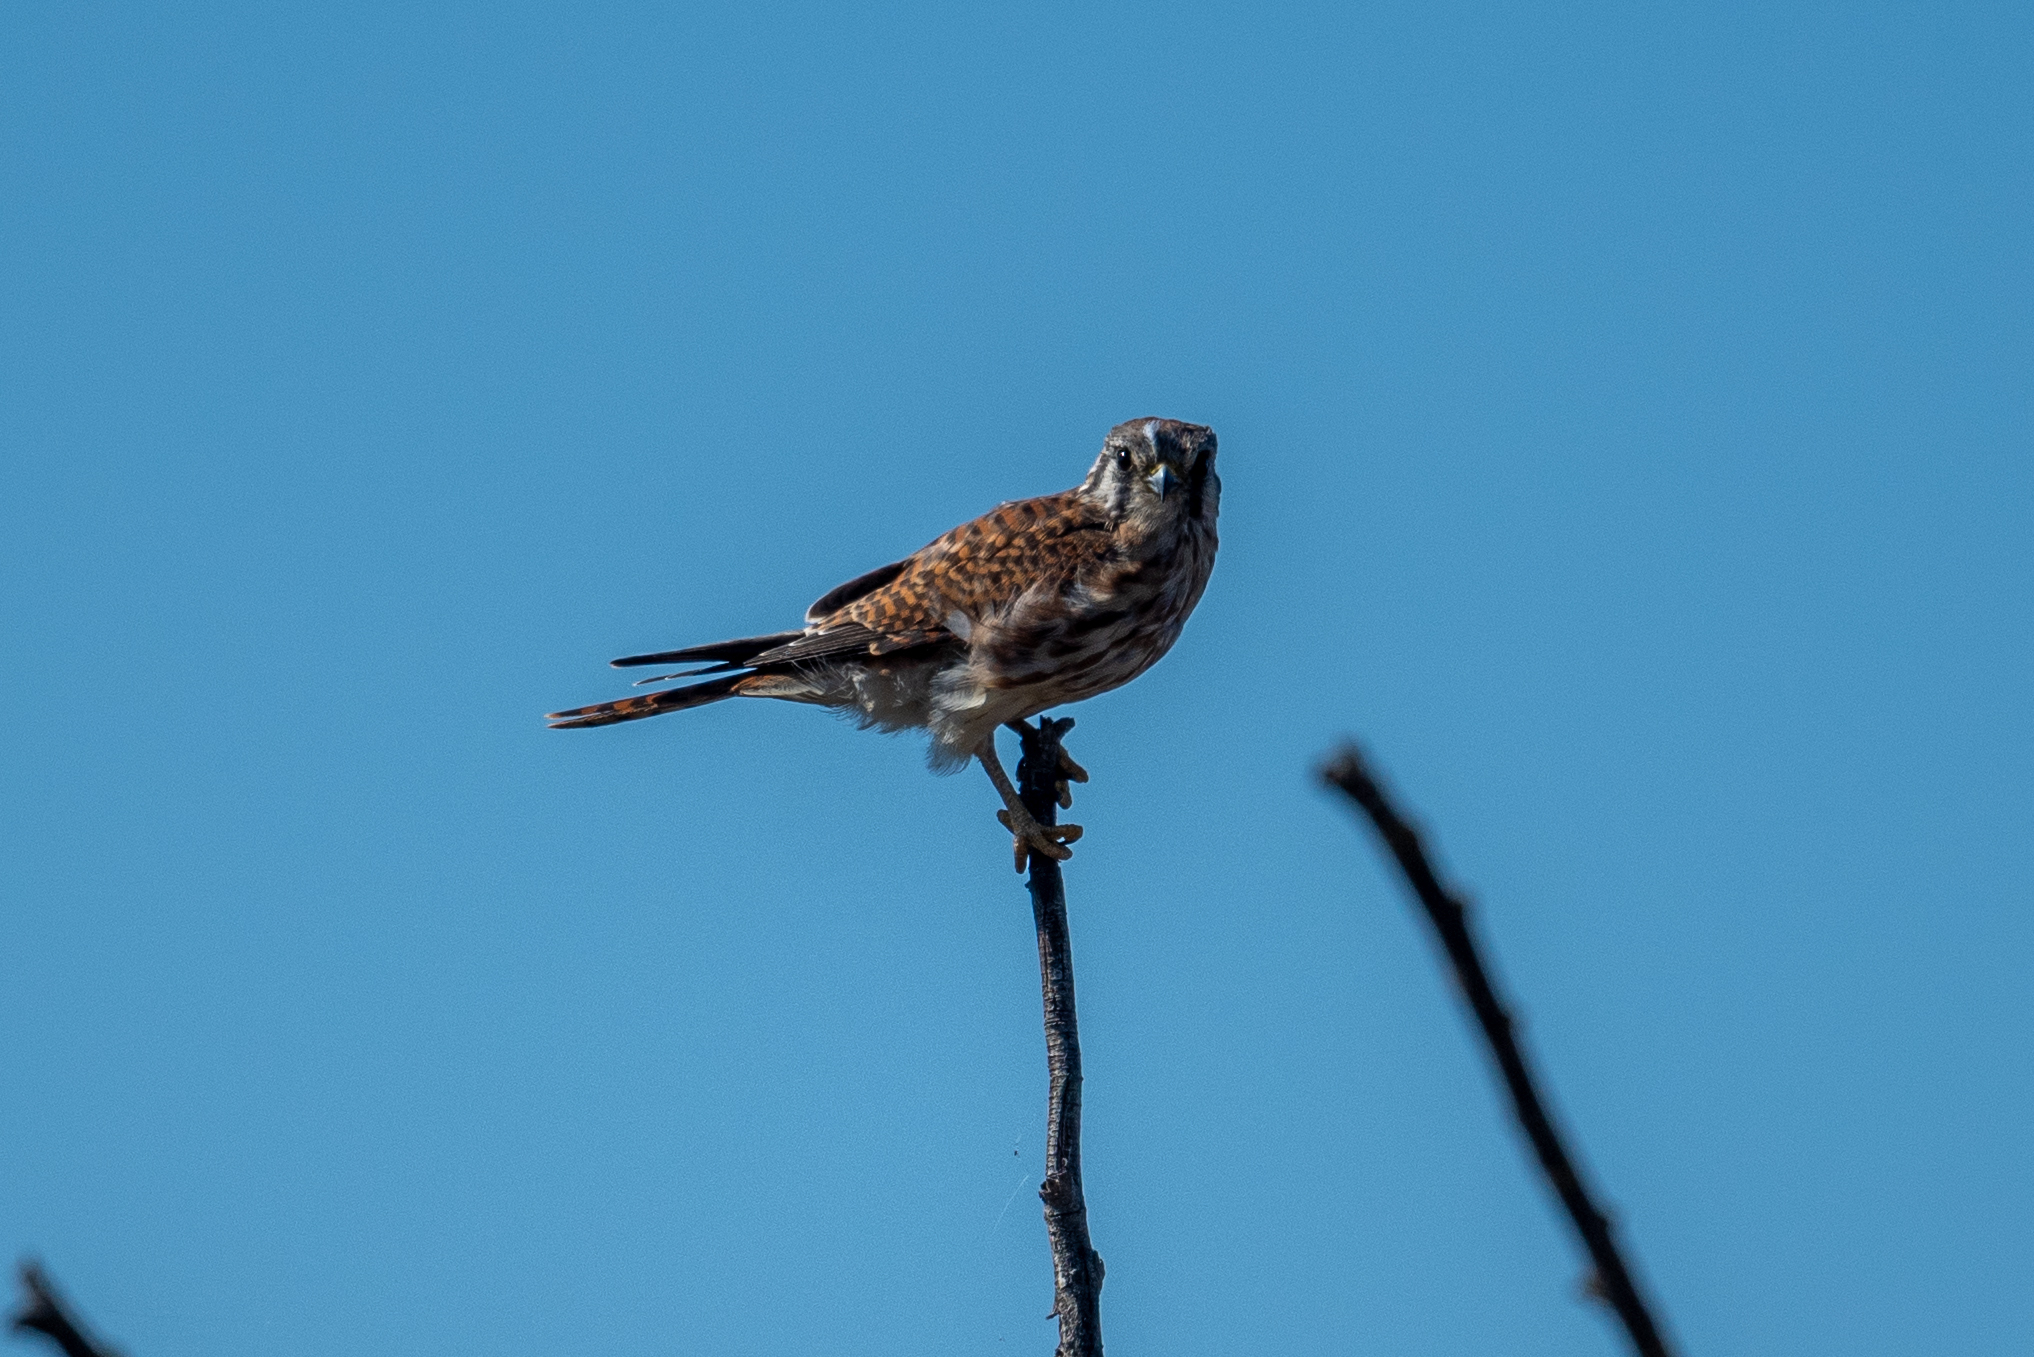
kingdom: Animalia
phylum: Chordata
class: Aves
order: Falconiformes
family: Falconidae
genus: Falco
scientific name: Falco sparverius
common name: American kestrel
